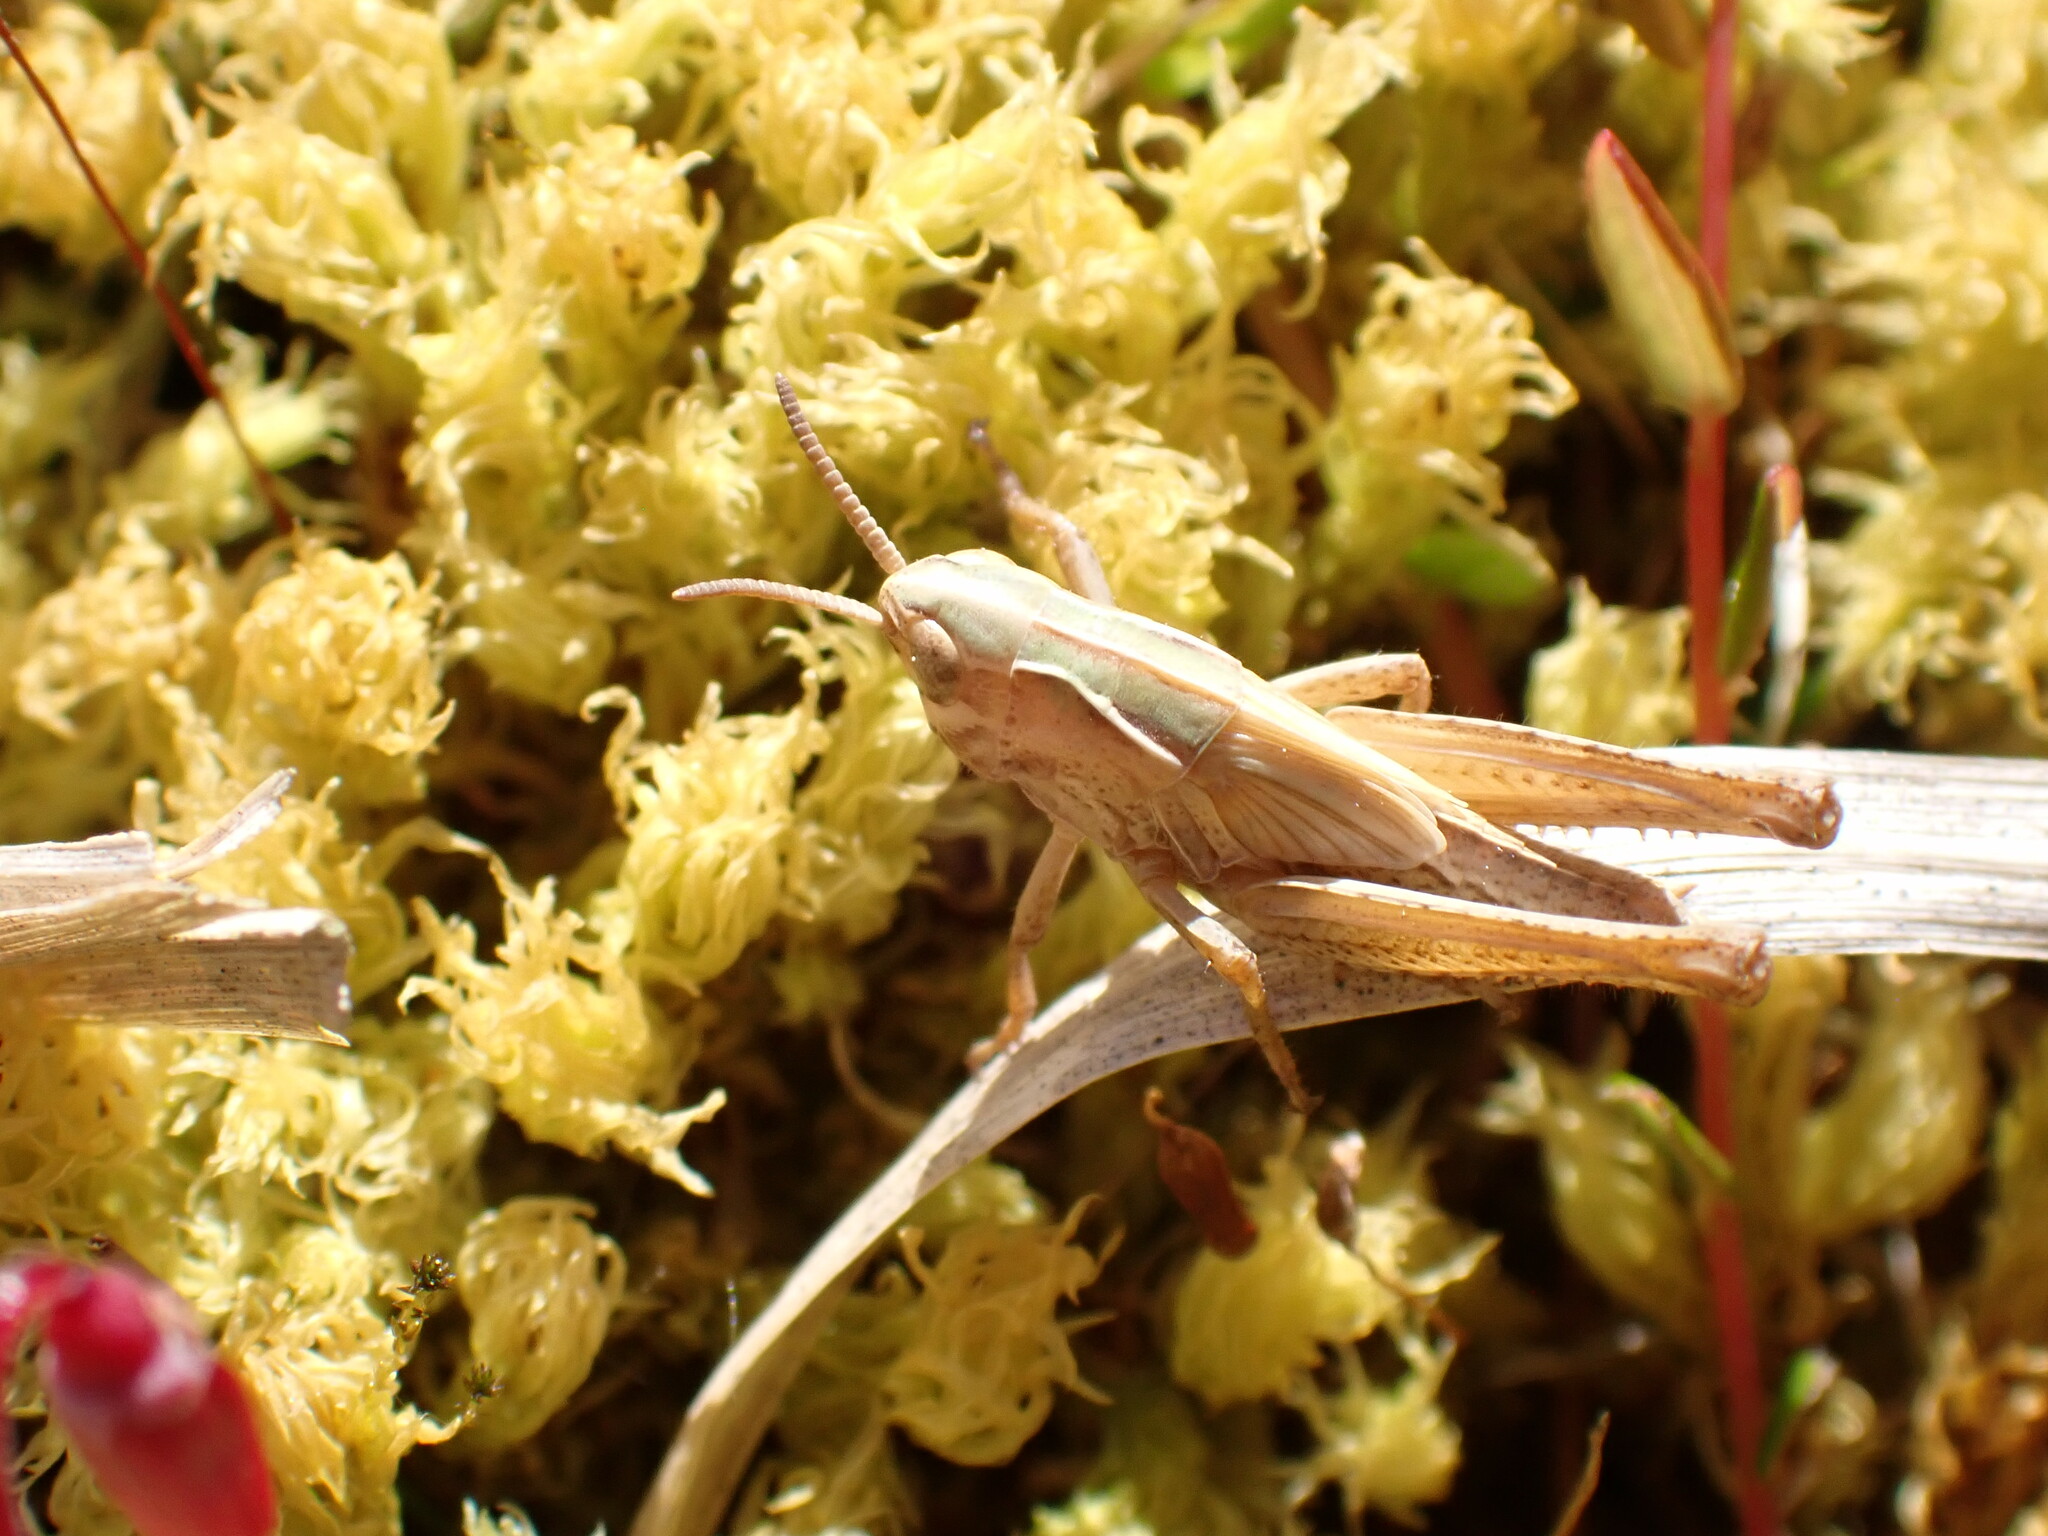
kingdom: Animalia
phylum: Arthropoda
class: Insecta
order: Orthoptera
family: Acrididae
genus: Omocestus
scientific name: Omocestus viridulus
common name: Common green grasshopper
